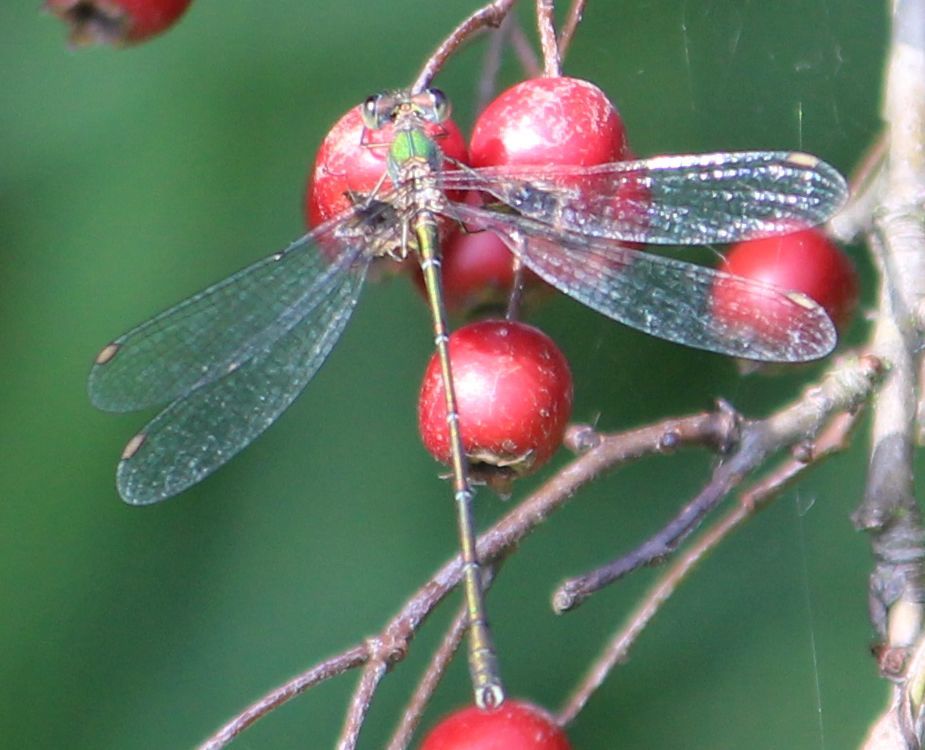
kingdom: Animalia
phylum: Arthropoda
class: Insecta
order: Odonata
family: Lestidae
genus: Chalcolestes
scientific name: Chalcolestes viridis
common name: Green emerald damselfly
